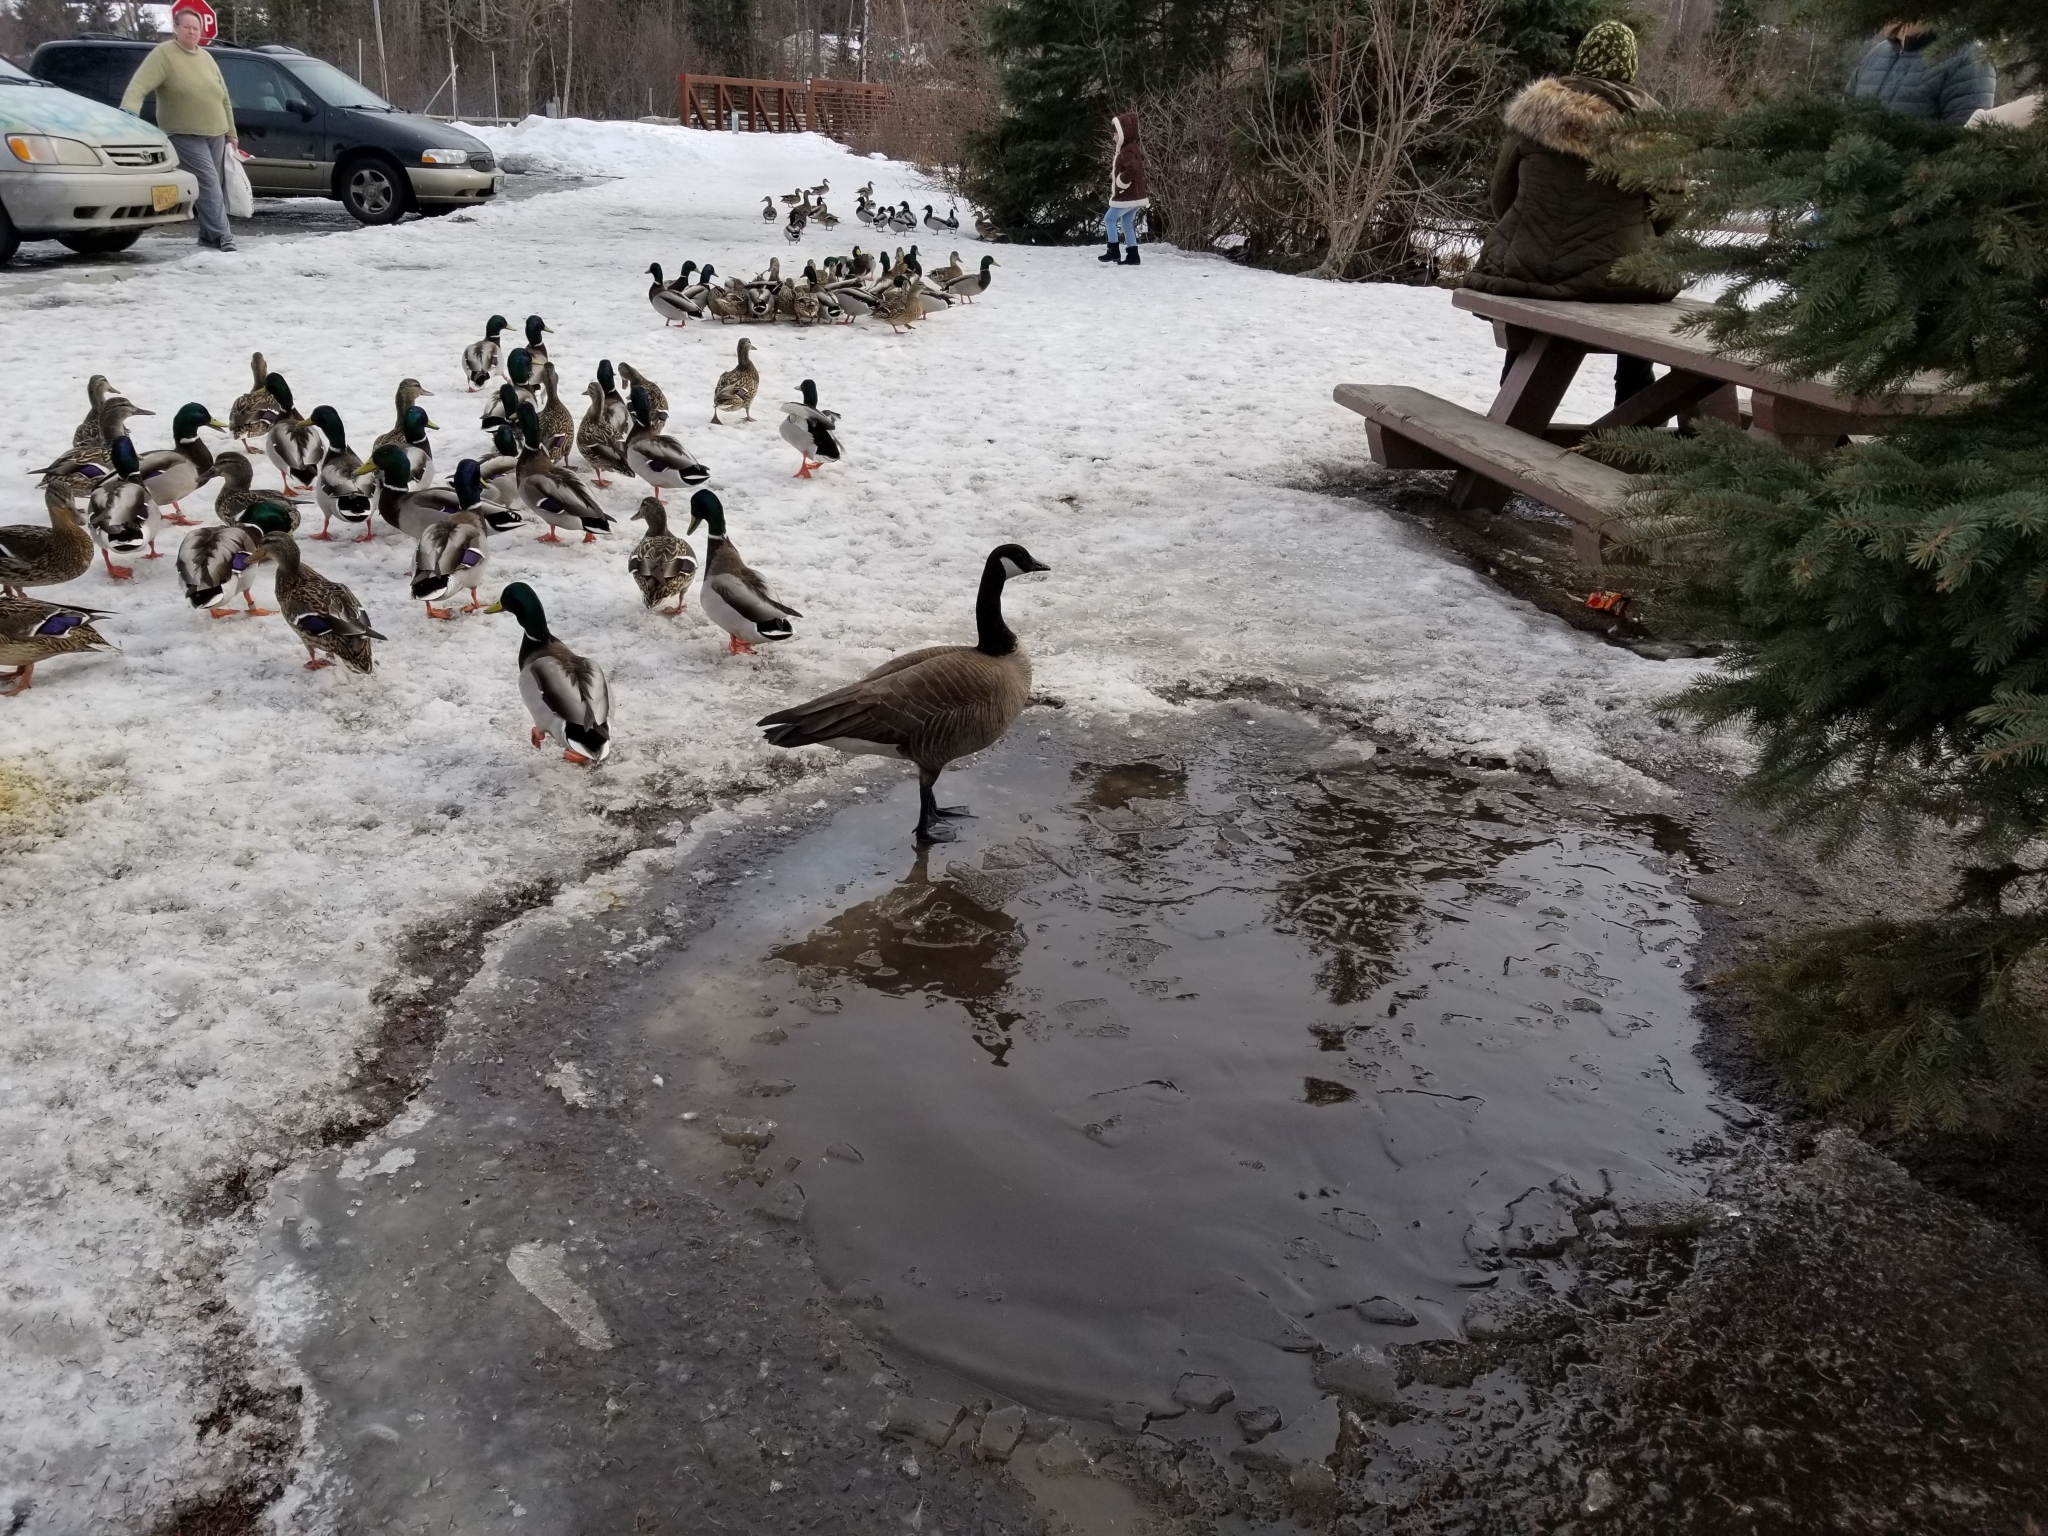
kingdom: Animalia
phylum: Chordata
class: Aves
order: Anseriformes
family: Anatidae
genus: Branta
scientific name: Branta canadensis
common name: Canada goose
